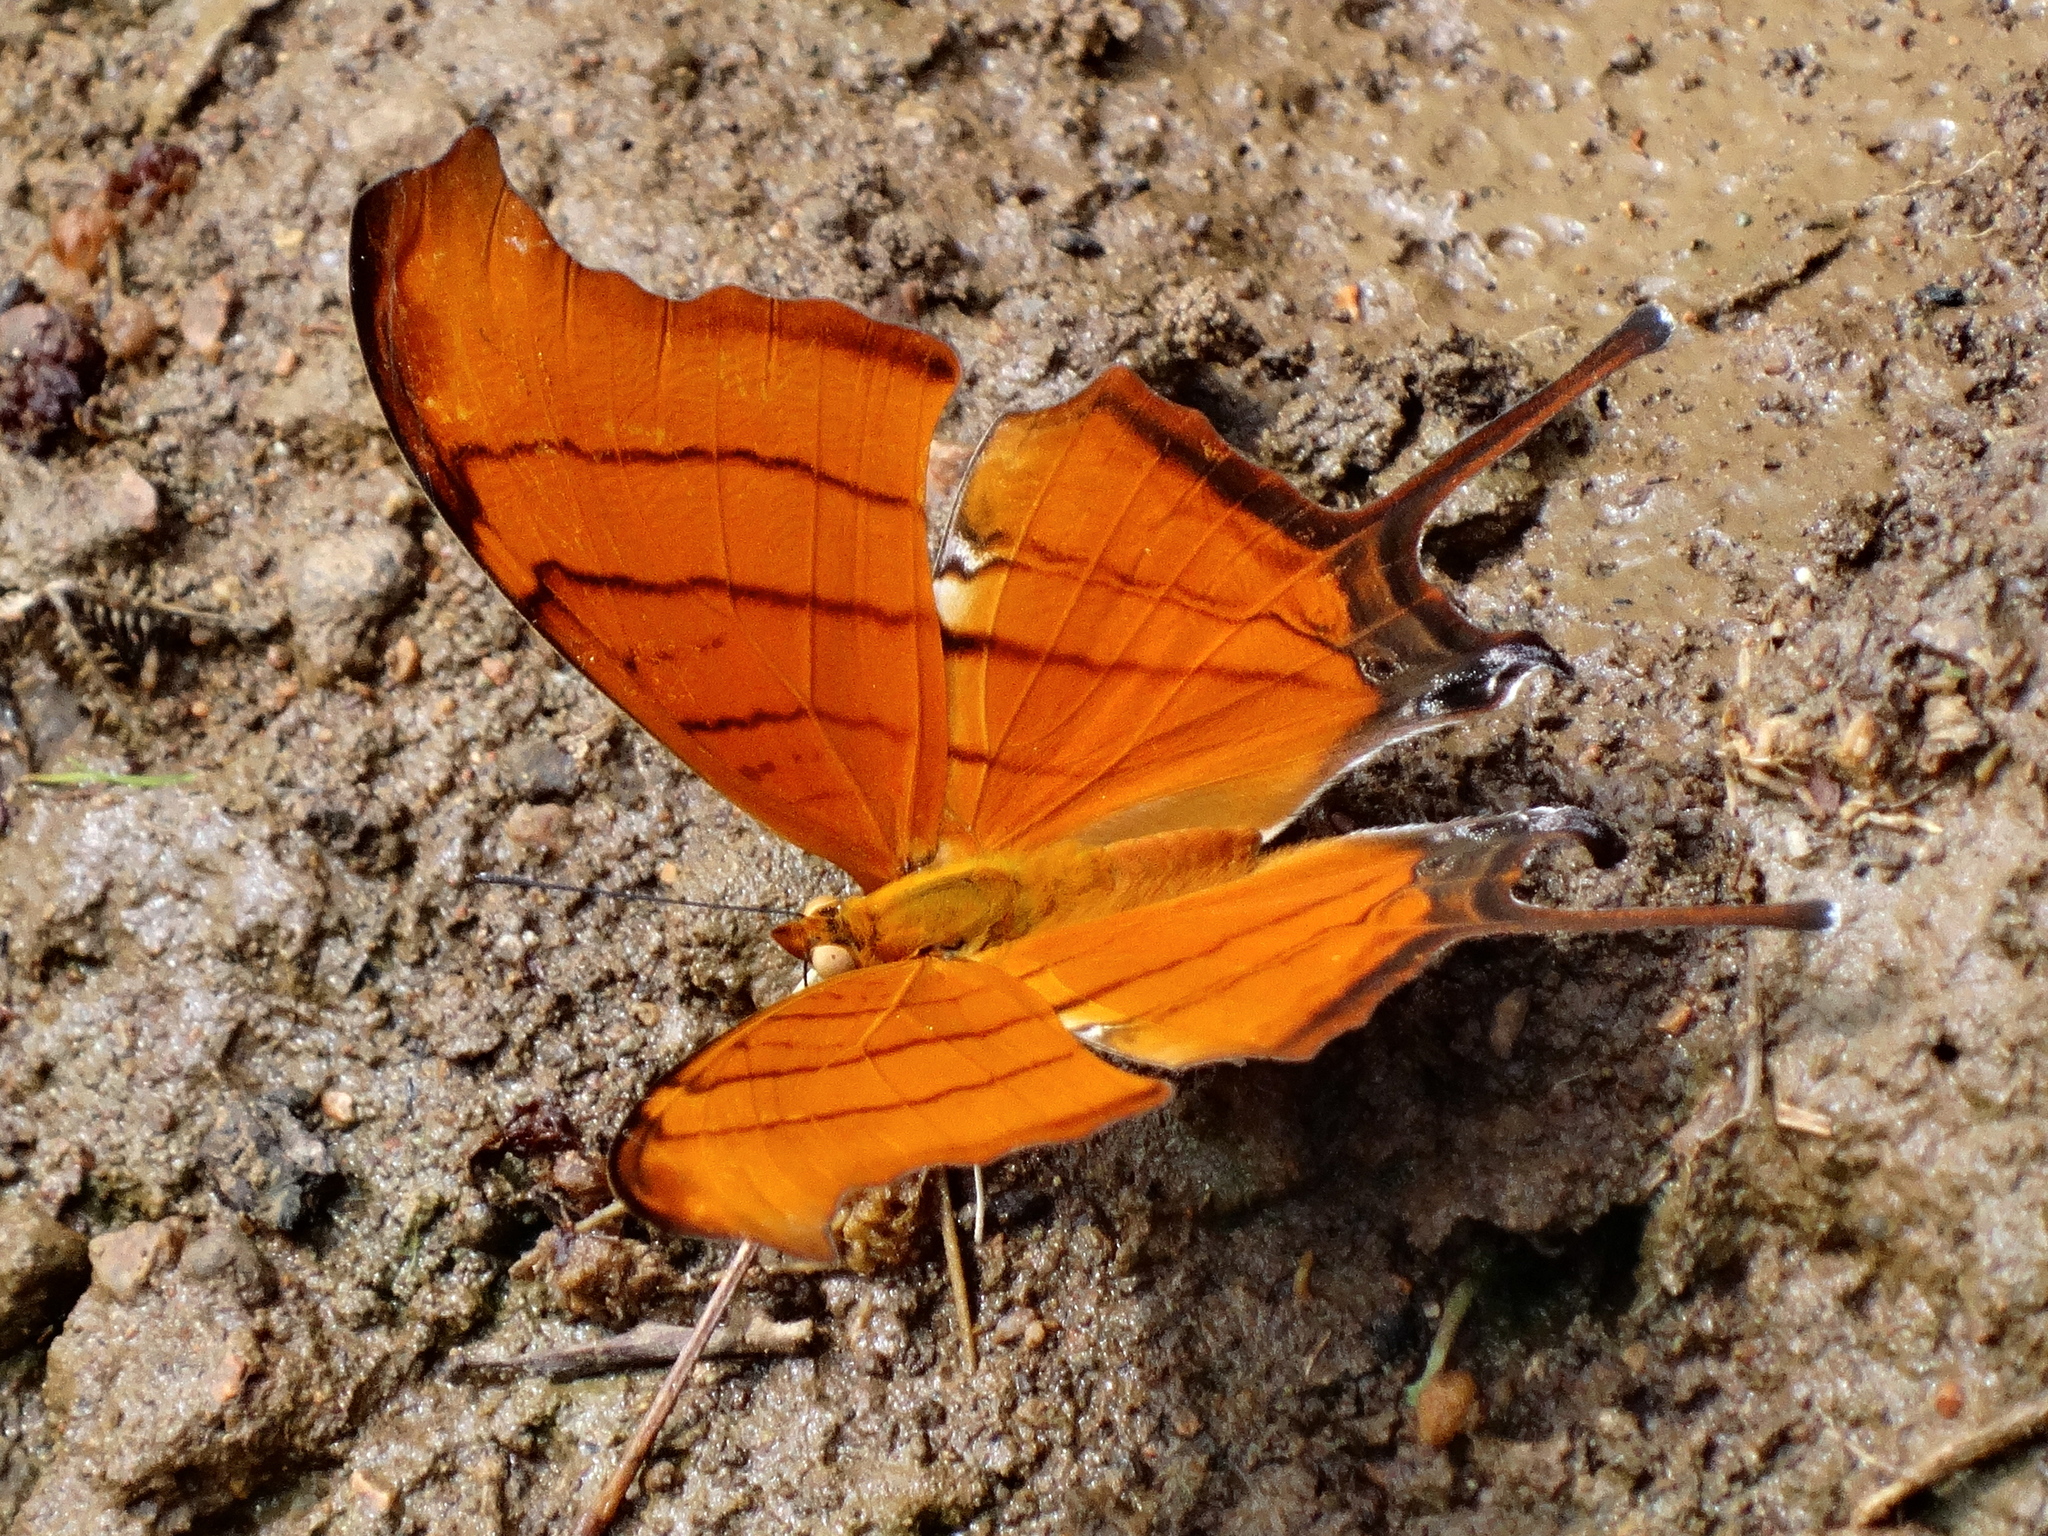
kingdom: Animalia
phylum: Arthropoda
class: Insecta
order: Lepidoptera
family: Nymphalidae
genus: Marpesia
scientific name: Marpesia petreus
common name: Red dagger wing
